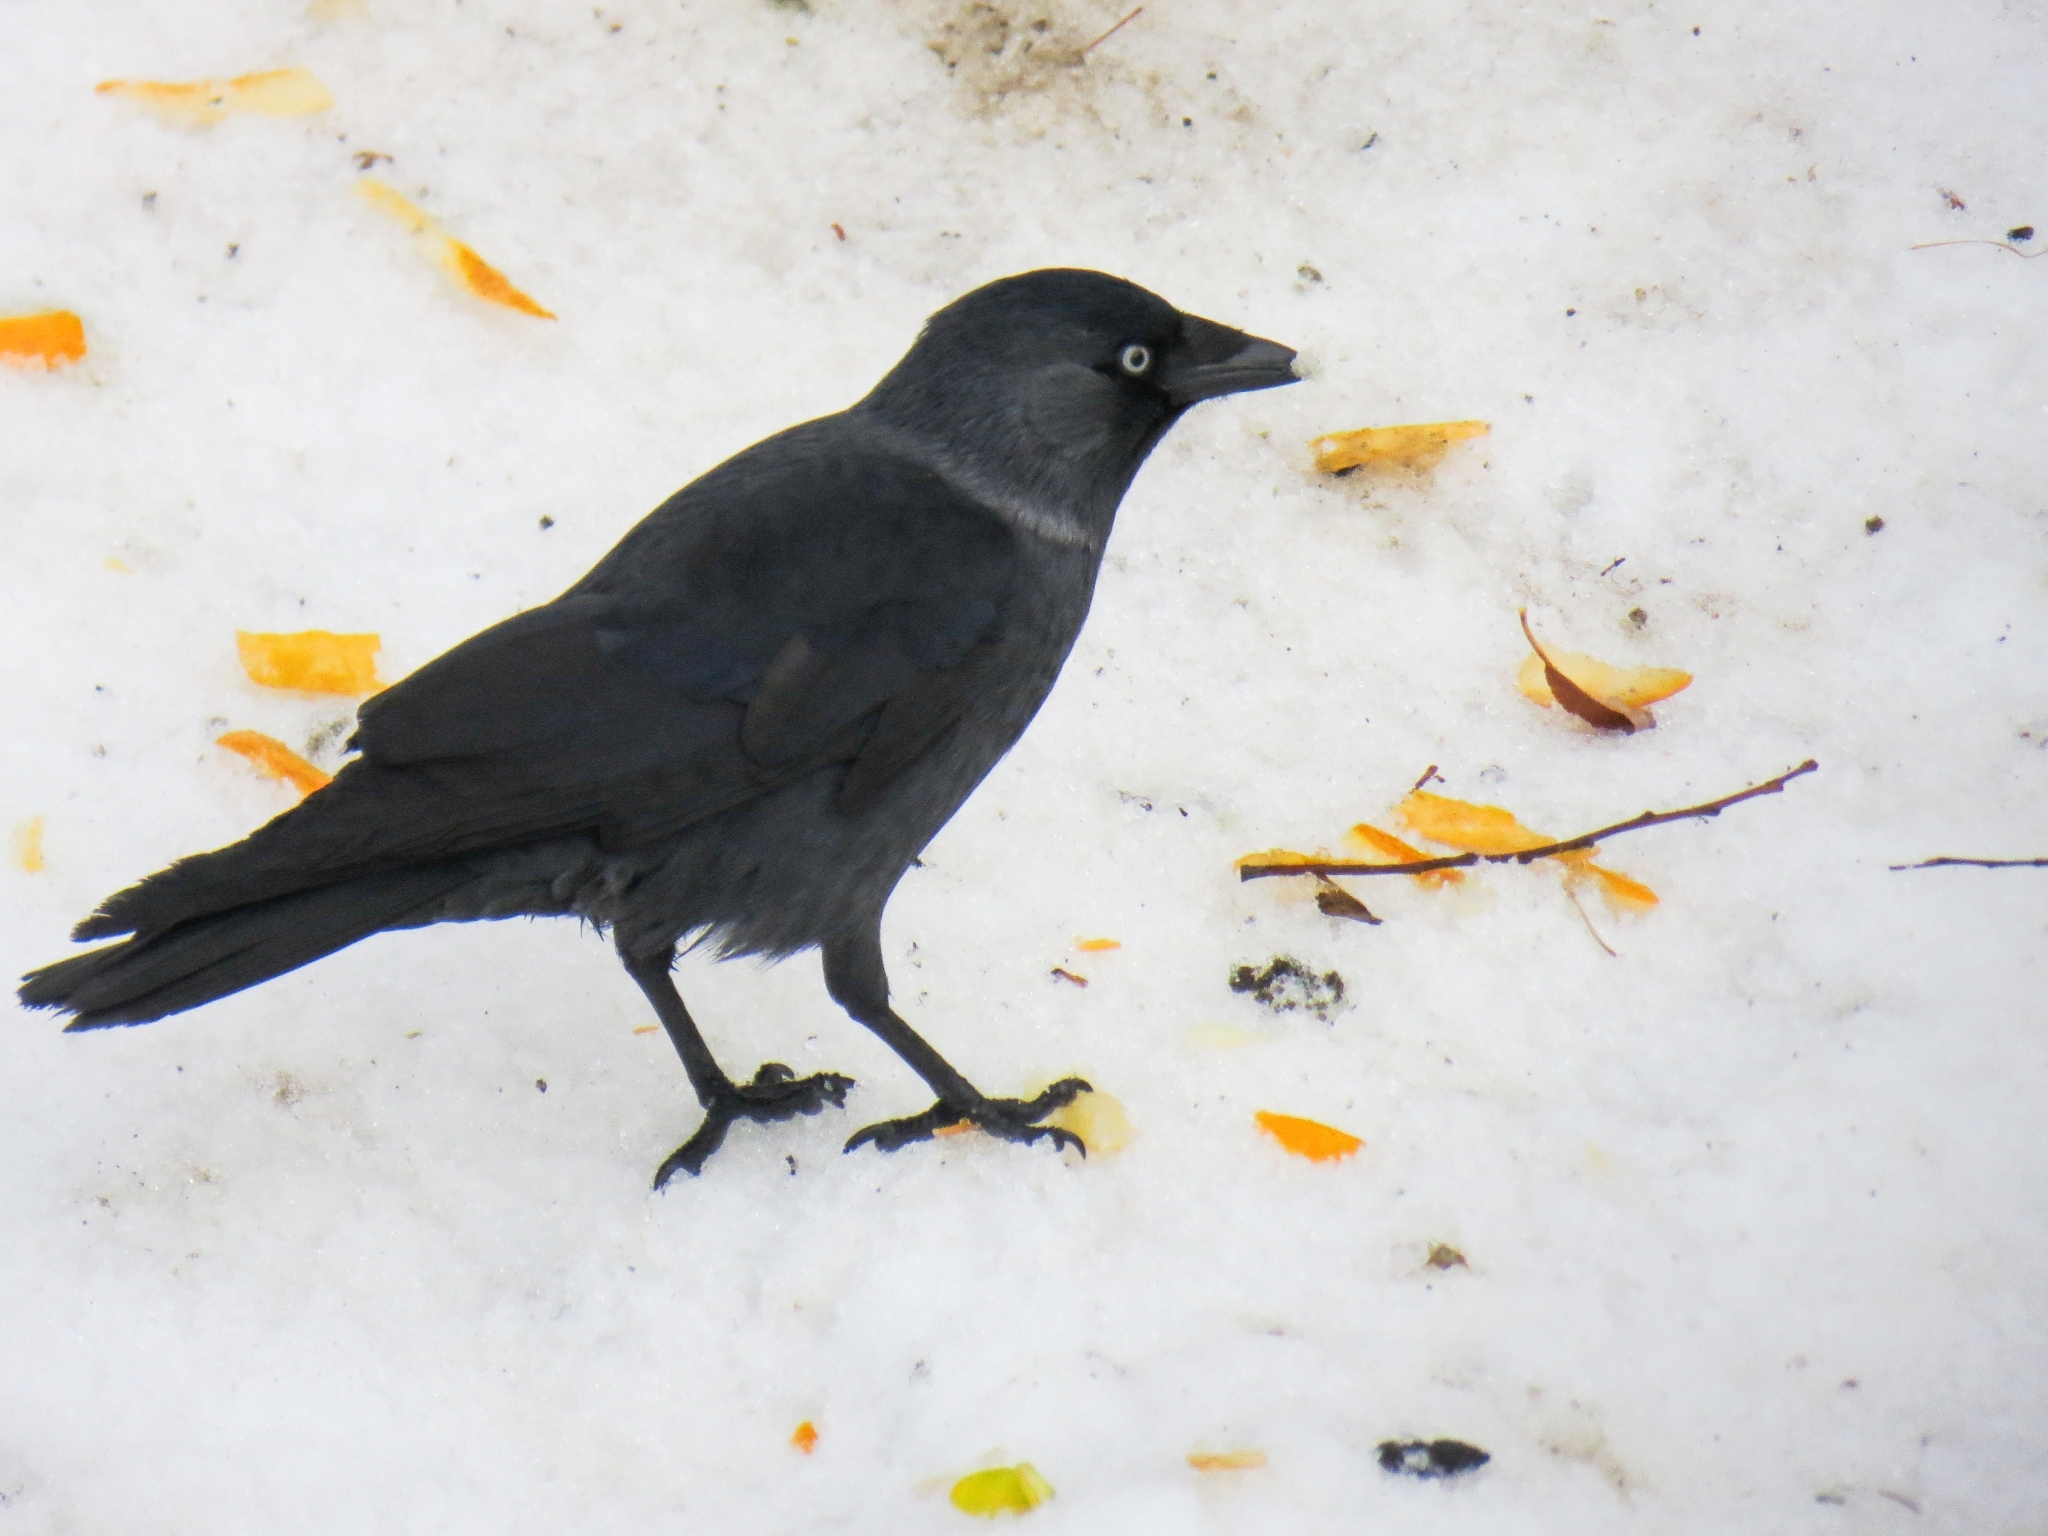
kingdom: Animalia
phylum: Chordata
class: Aves
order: Passeriformes
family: Corvidae
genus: Coloeus
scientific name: Coloeus monedula
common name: Western jackdaw
